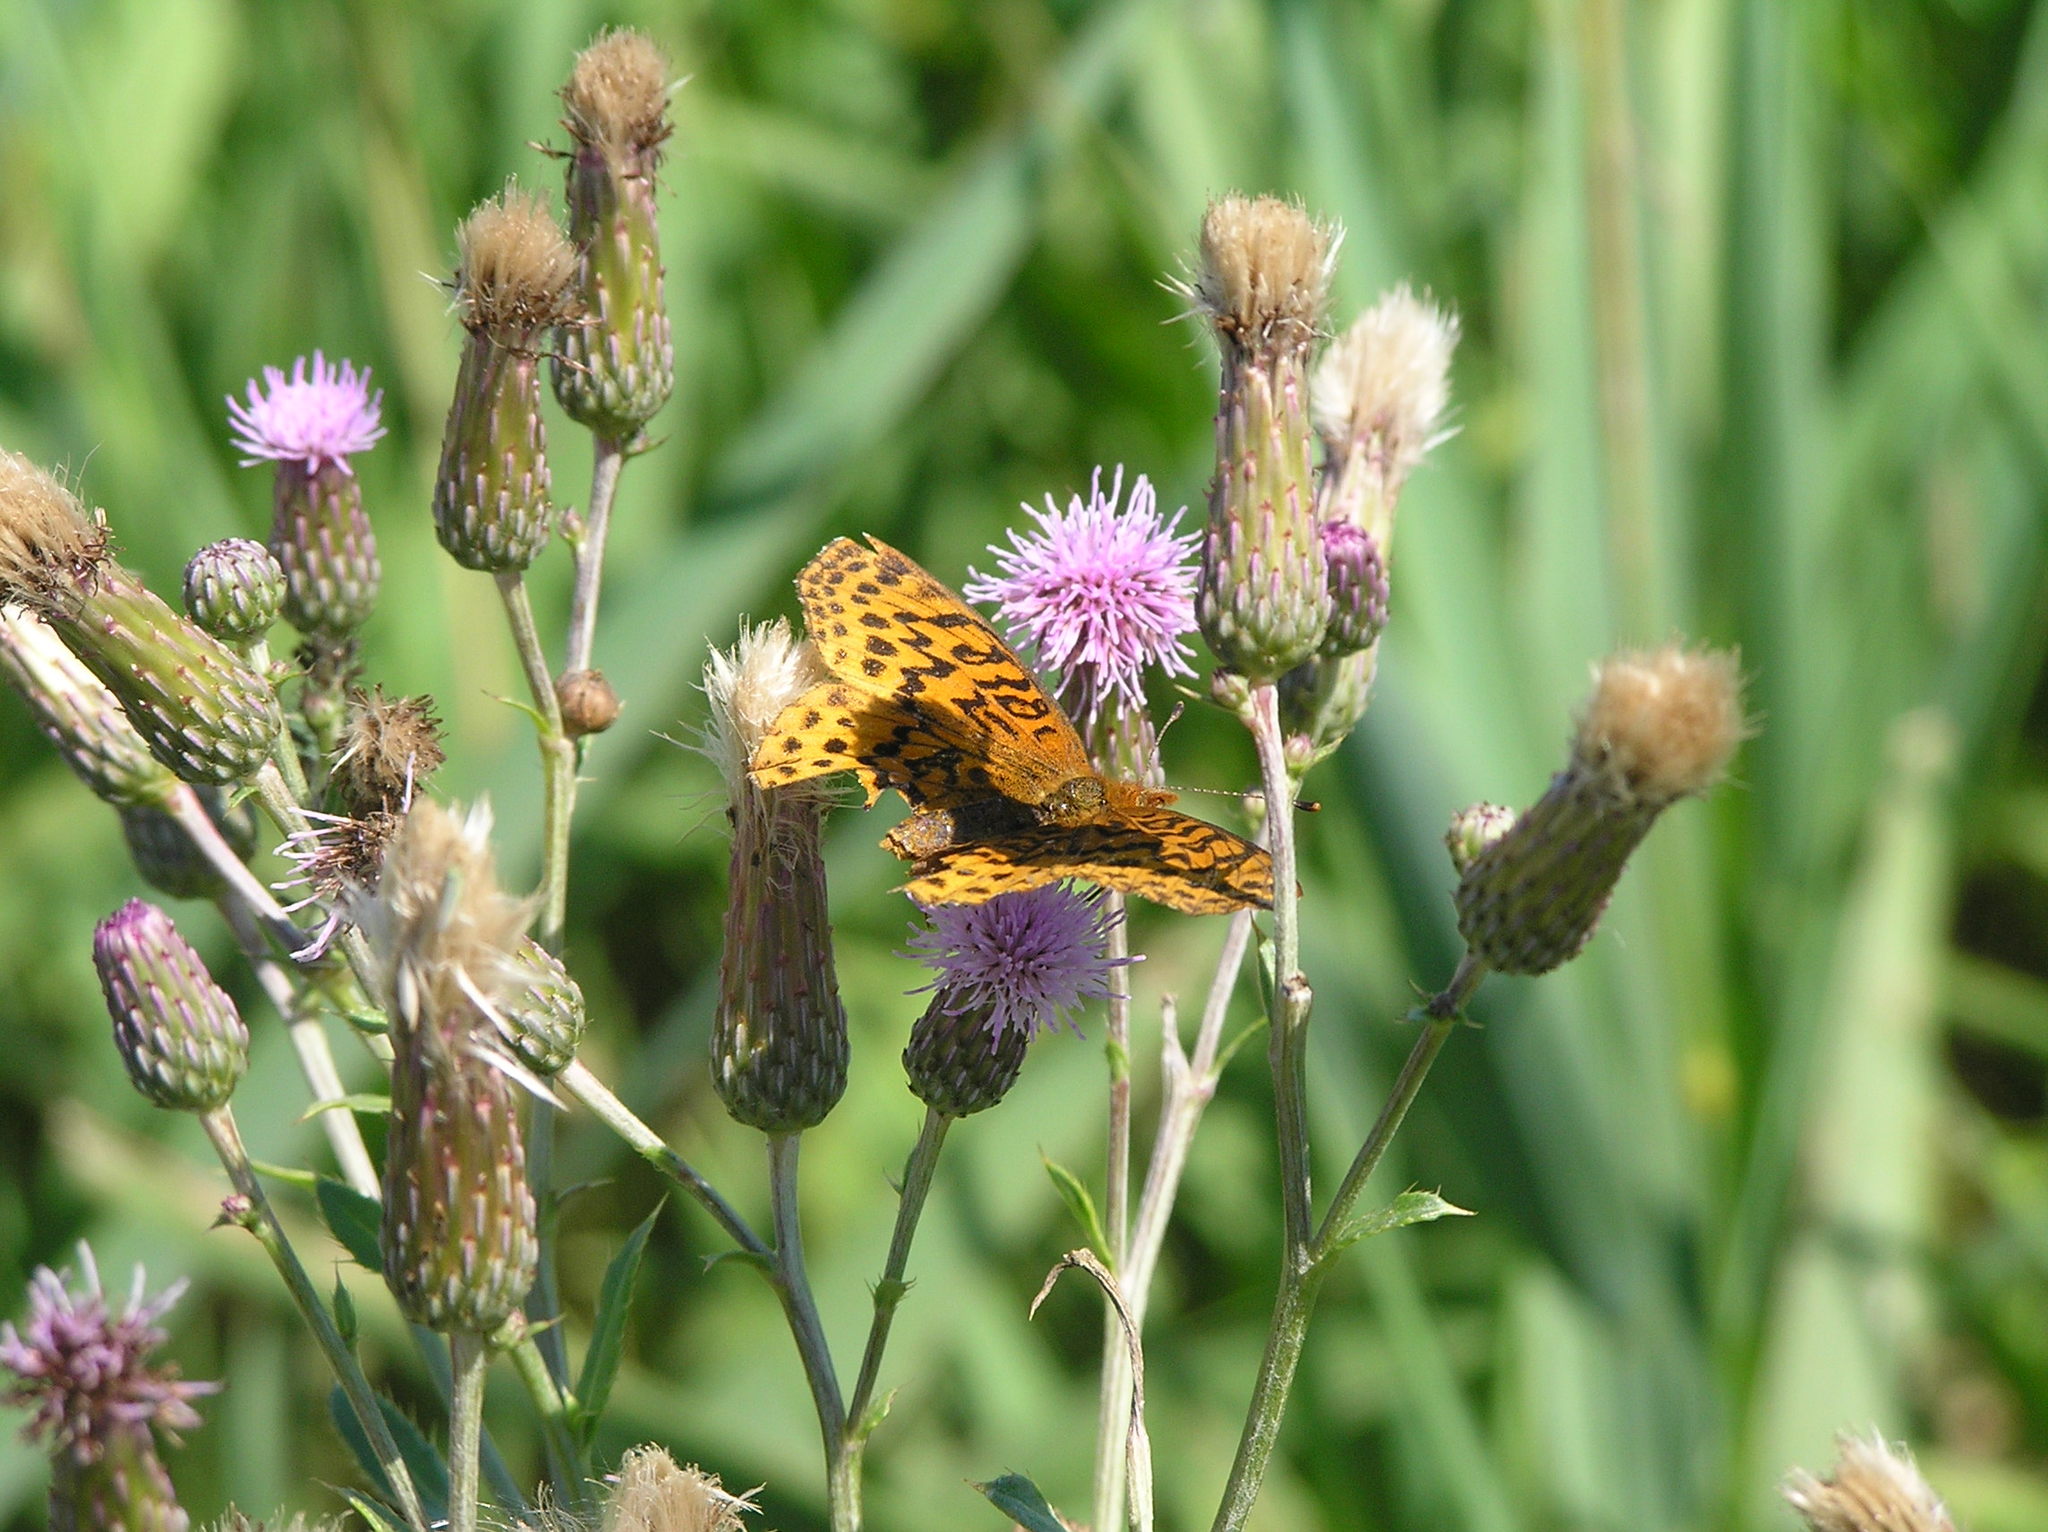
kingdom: Animalia
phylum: Arthropoda
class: Insecta
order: Lepidoptera
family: Nymphalidae
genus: Clossiana
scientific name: Clossiana toddi
